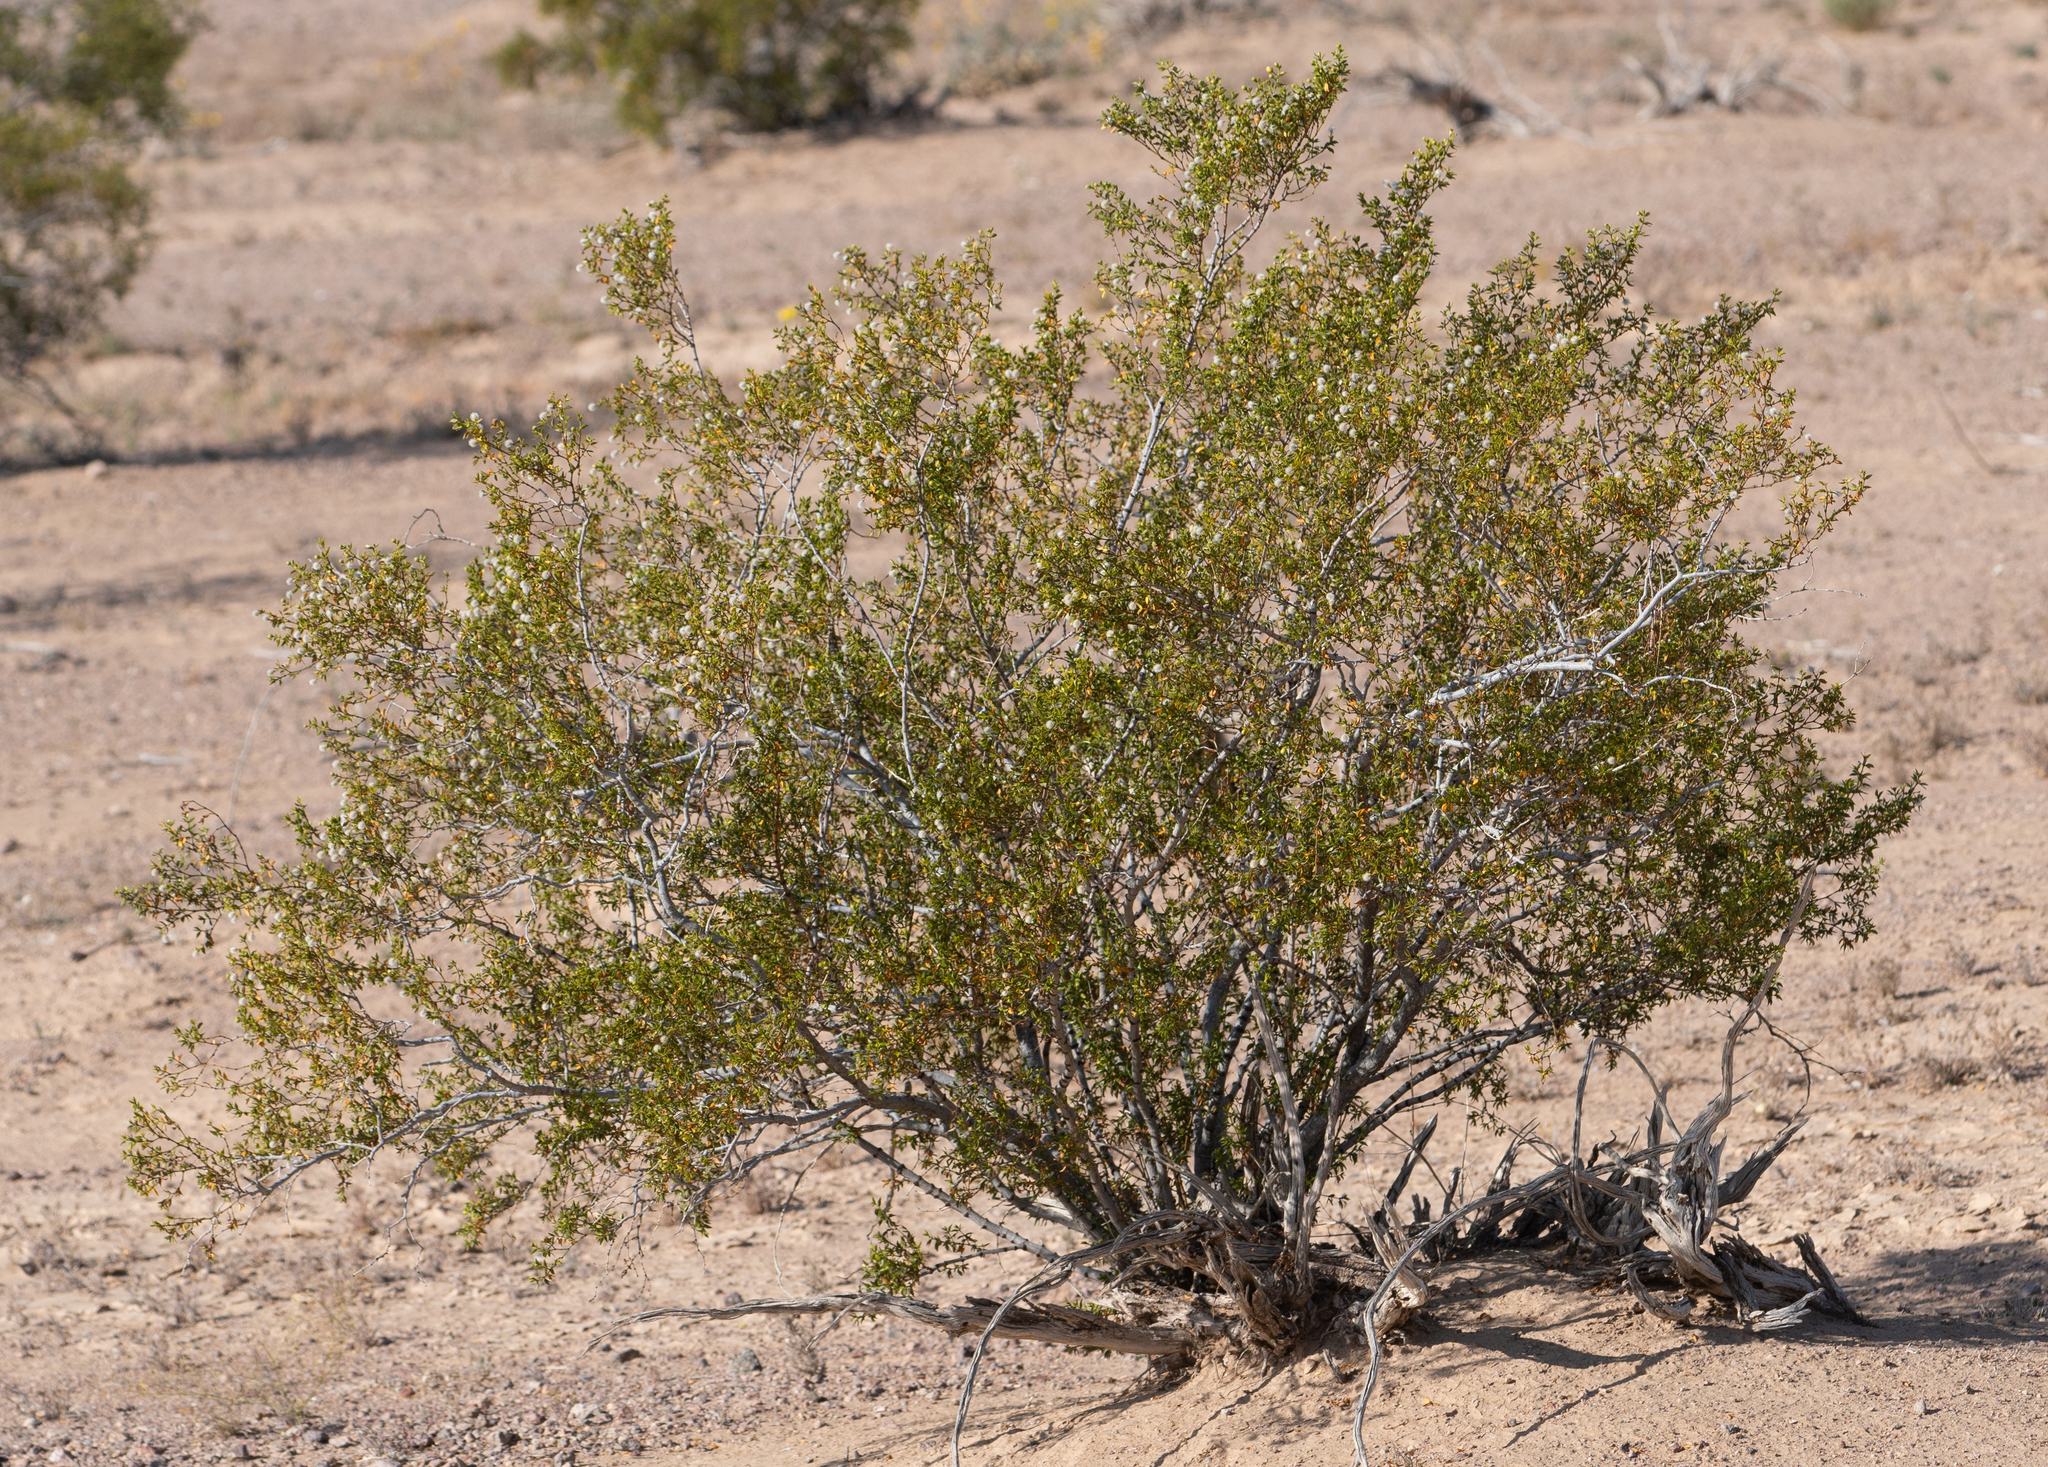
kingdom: Plantae
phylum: Tracheophyta
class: Magnoliopsida
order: Zygophyllales
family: Zygophyllaceae
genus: Larrea
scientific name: Larrea tridentata
